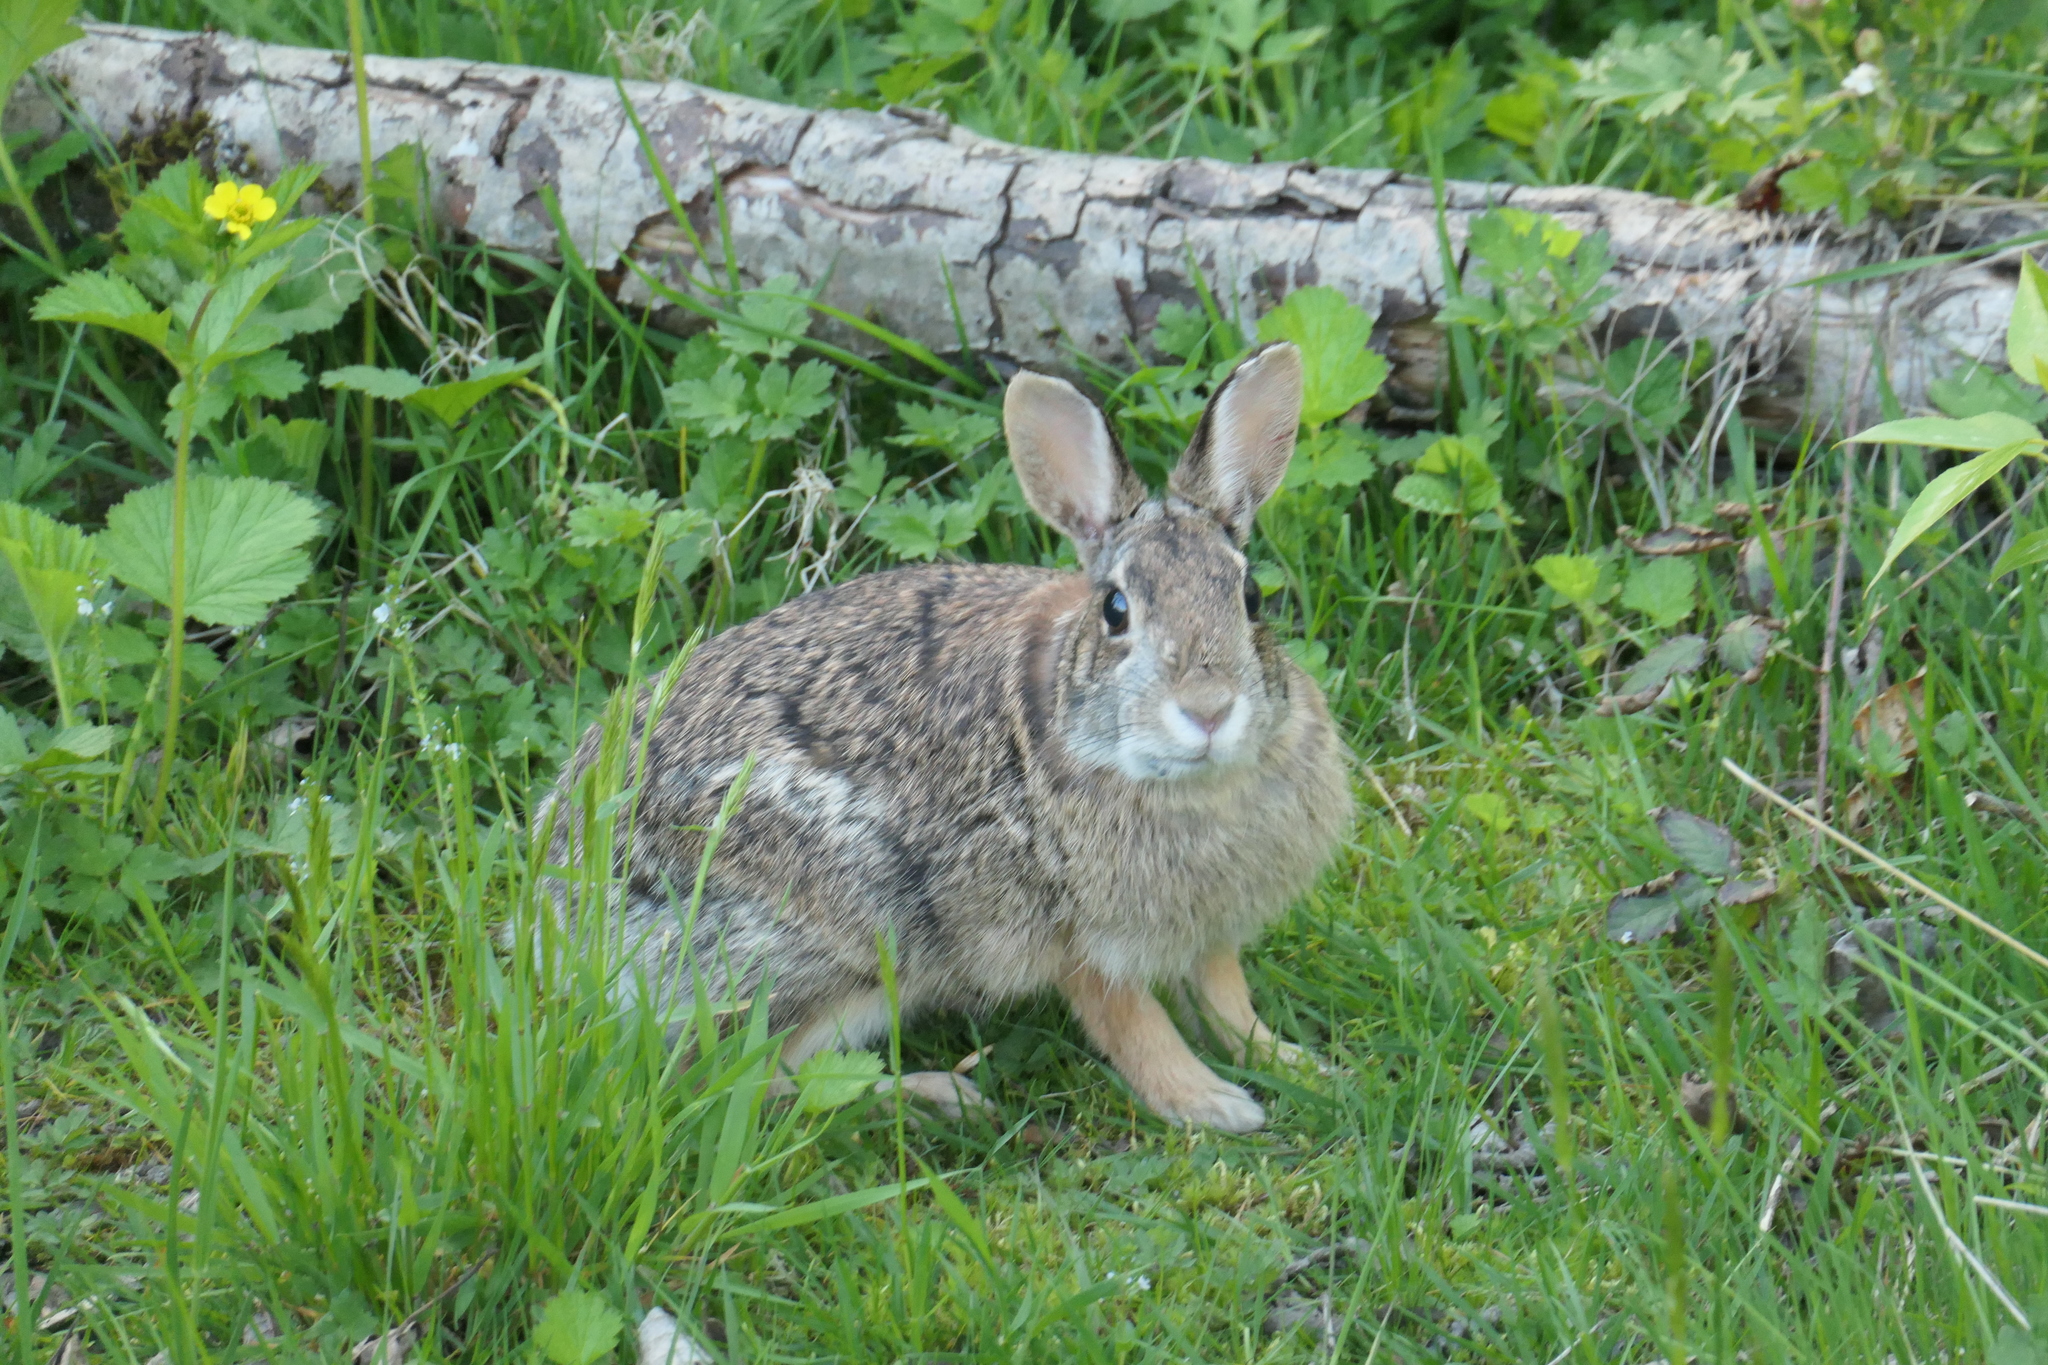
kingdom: Animalia
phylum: Chordata
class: Mammalia
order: Lagomorpha
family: Leporidae
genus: Sylvilagus
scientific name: Sylvilagus floridanus
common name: Eastern cottontail
